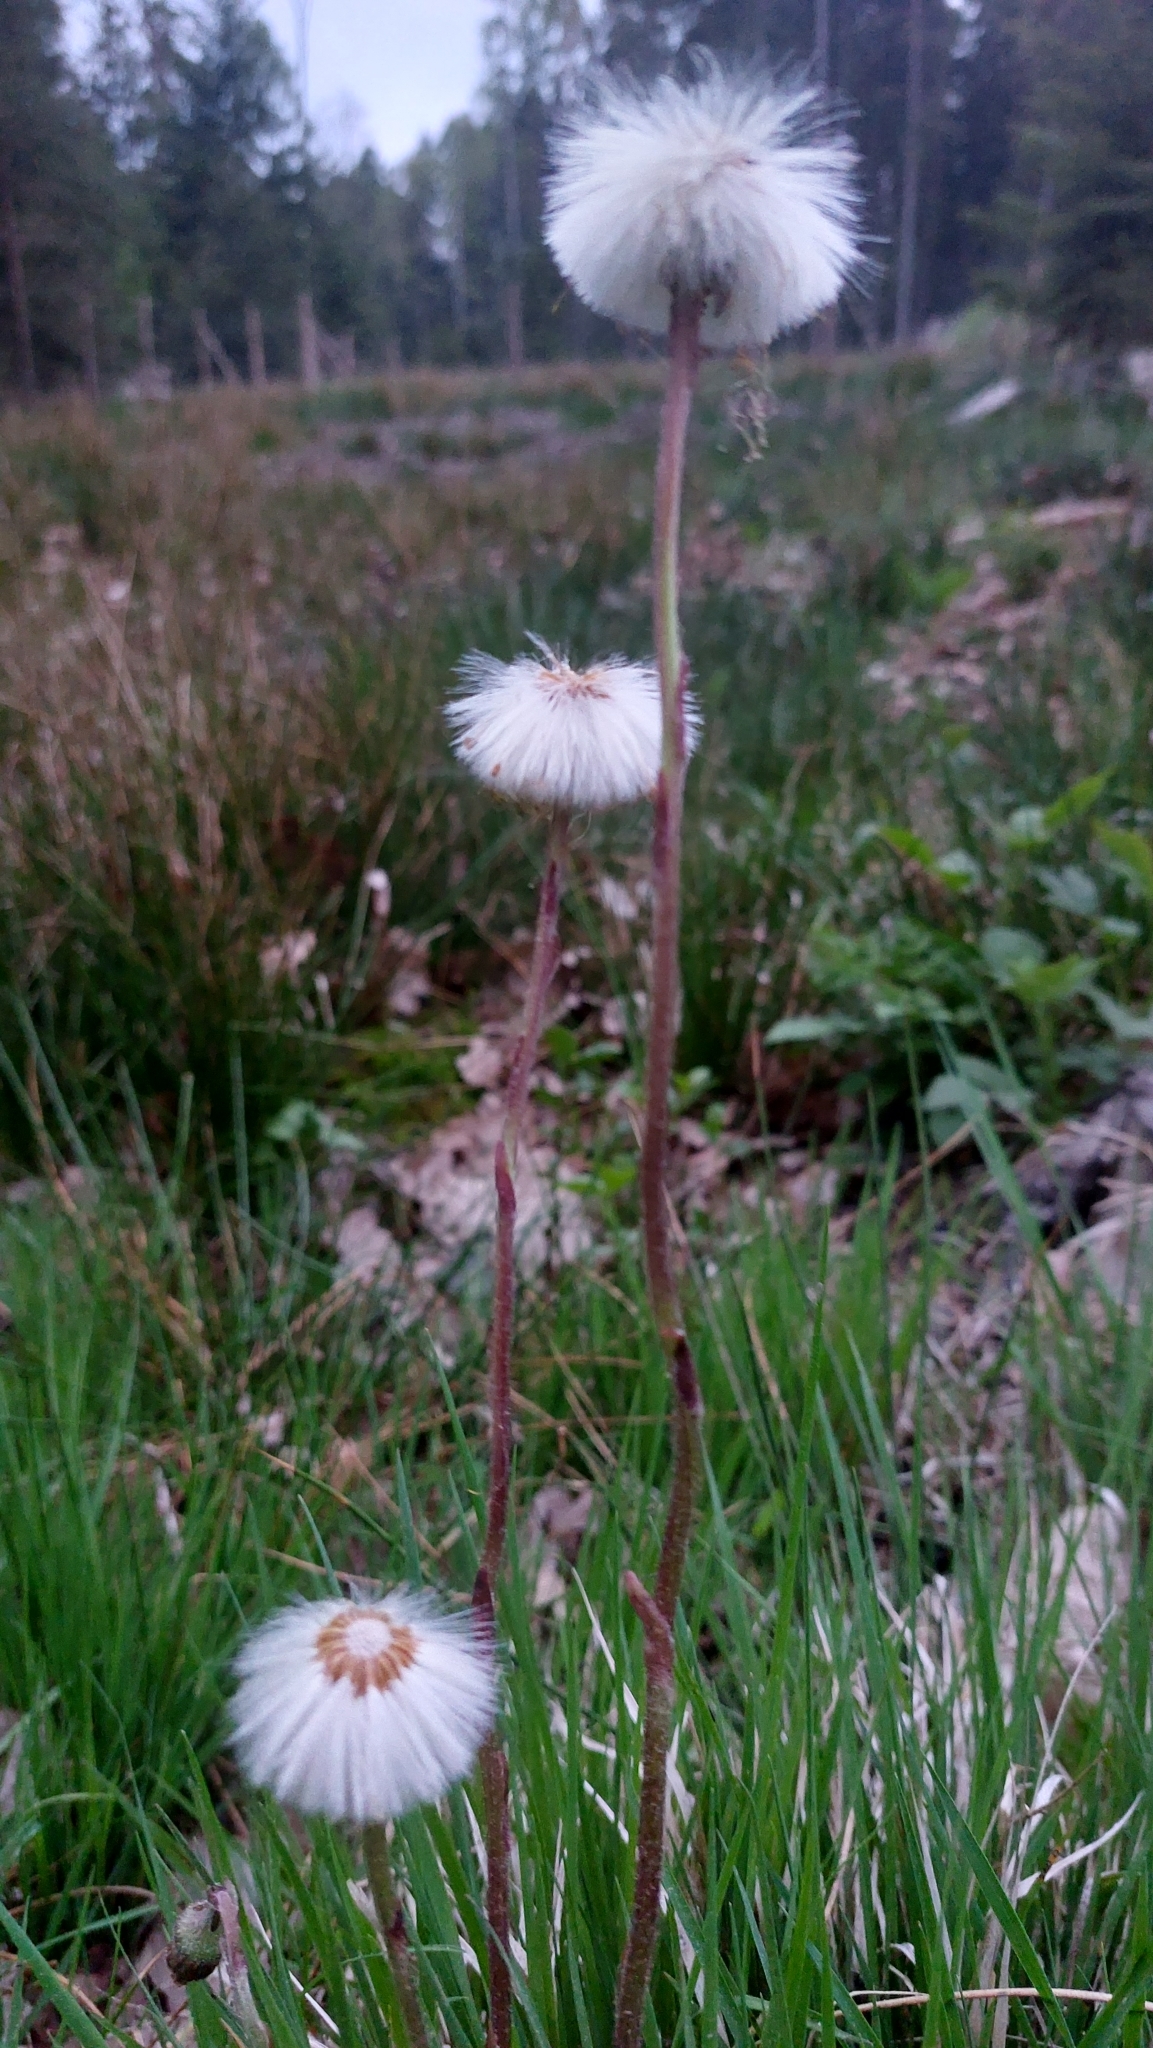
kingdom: Plantae
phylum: Tracheophyta
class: Magnoliopsida
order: Asterales
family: Asteraceae
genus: Tussilago
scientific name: Tussilago farfara
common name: Coltsfoot
